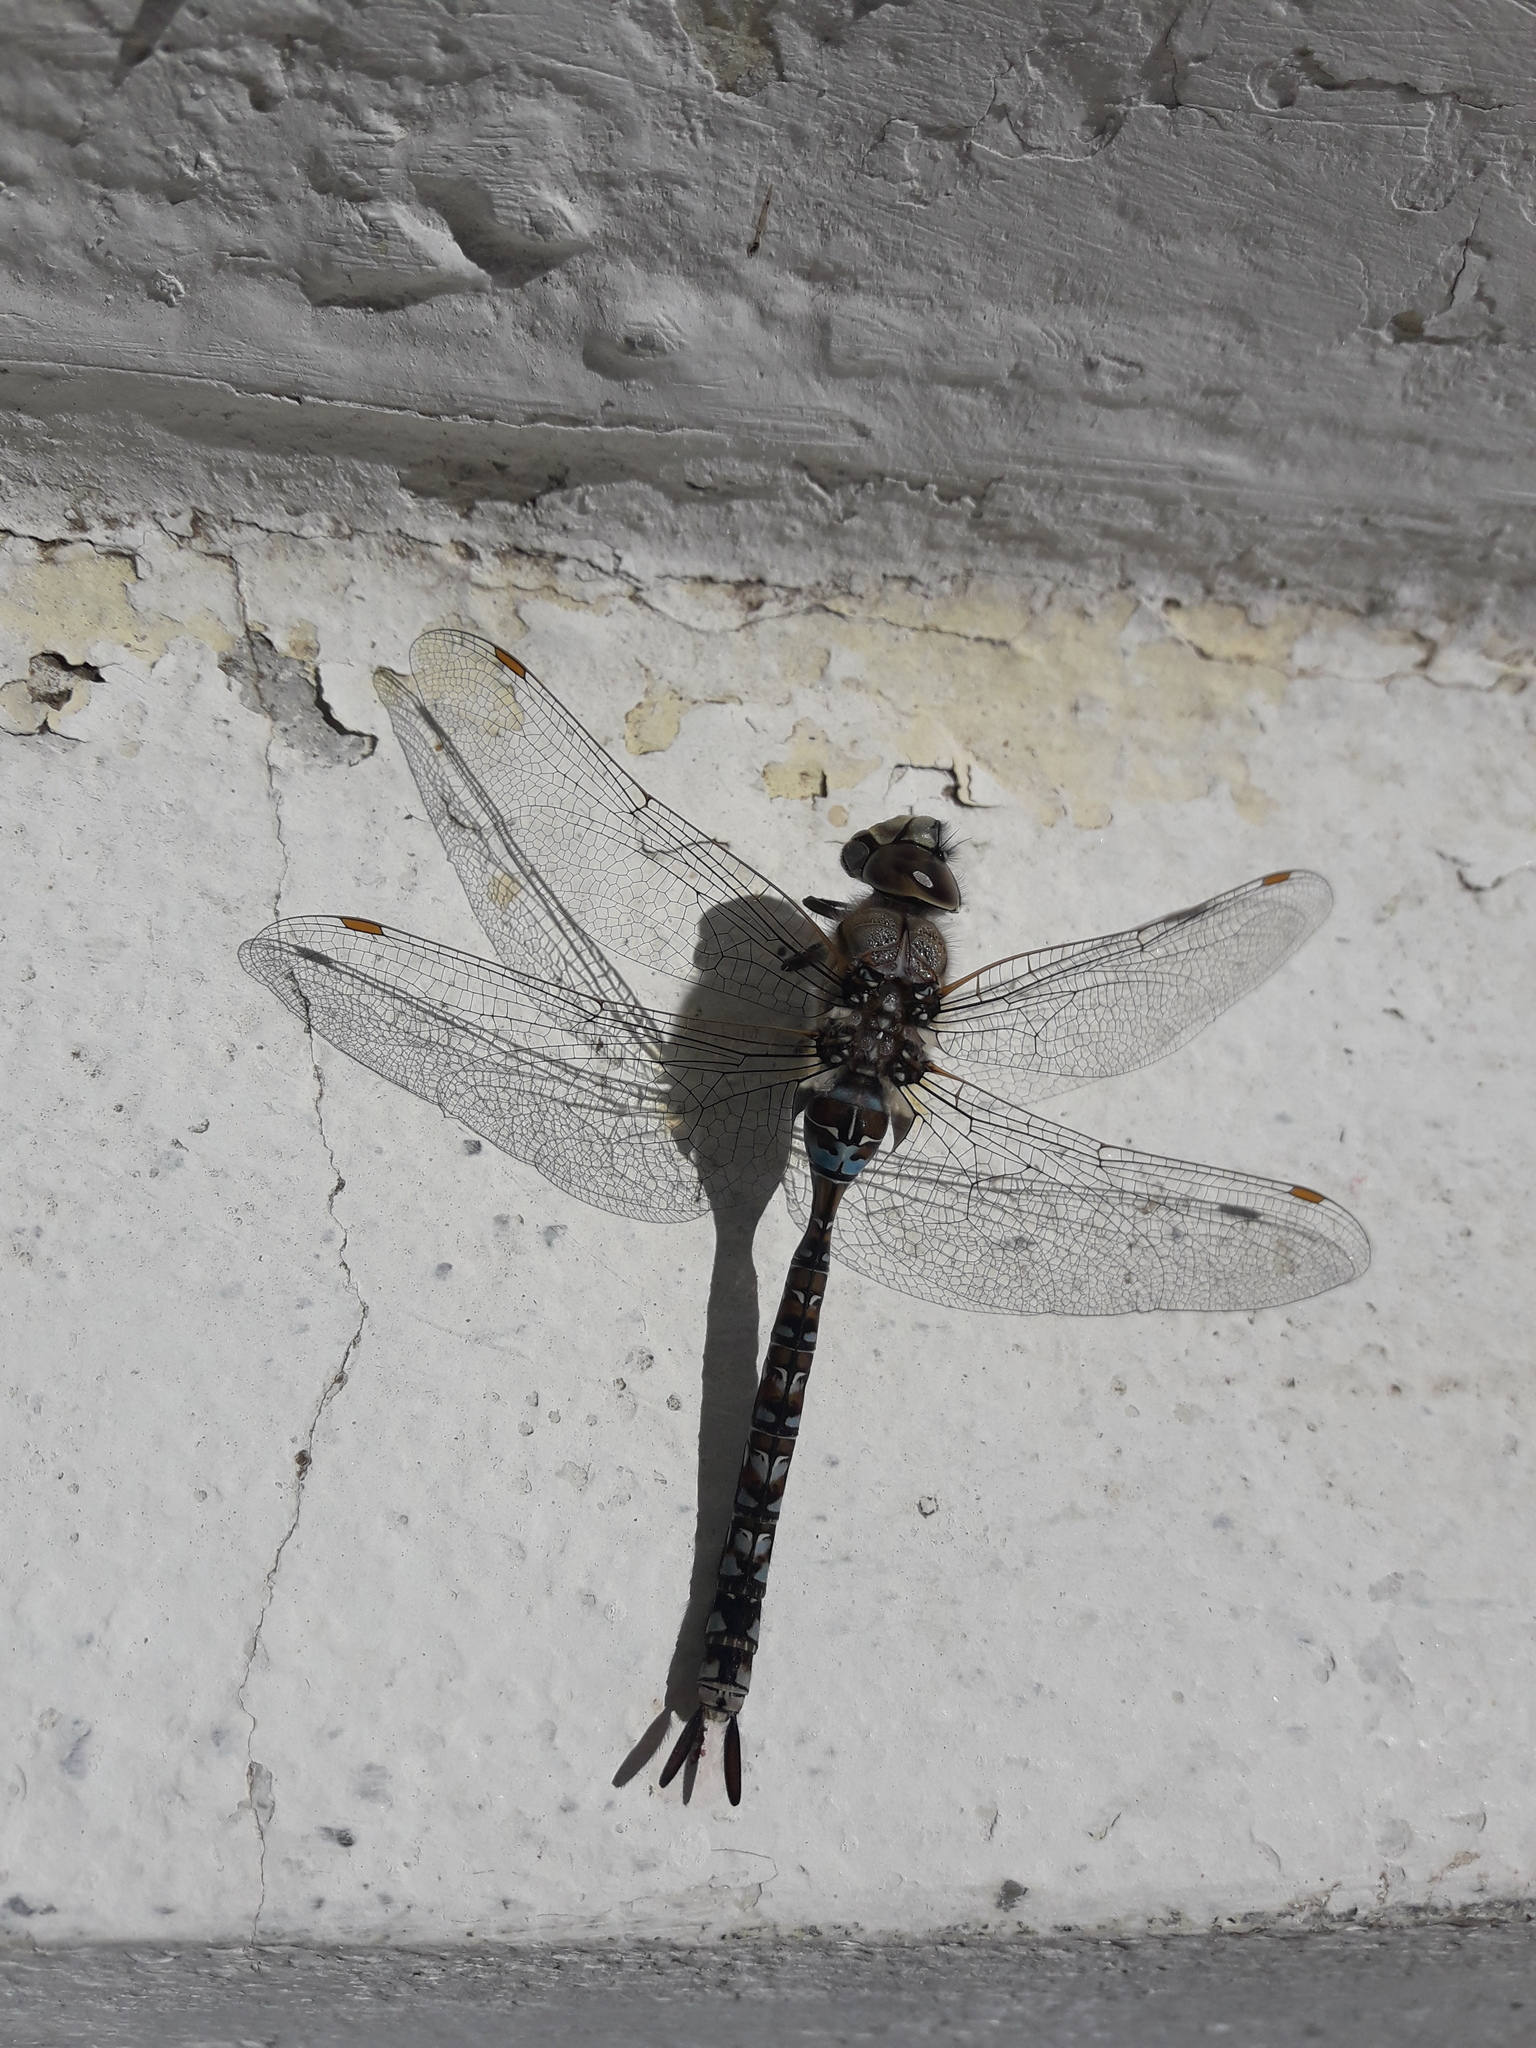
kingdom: Animalia
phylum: Arthropoda
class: Insecta
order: Odonata
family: Aeshnidae
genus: Rhionaeschna
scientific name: Rhionaeschna variegata
